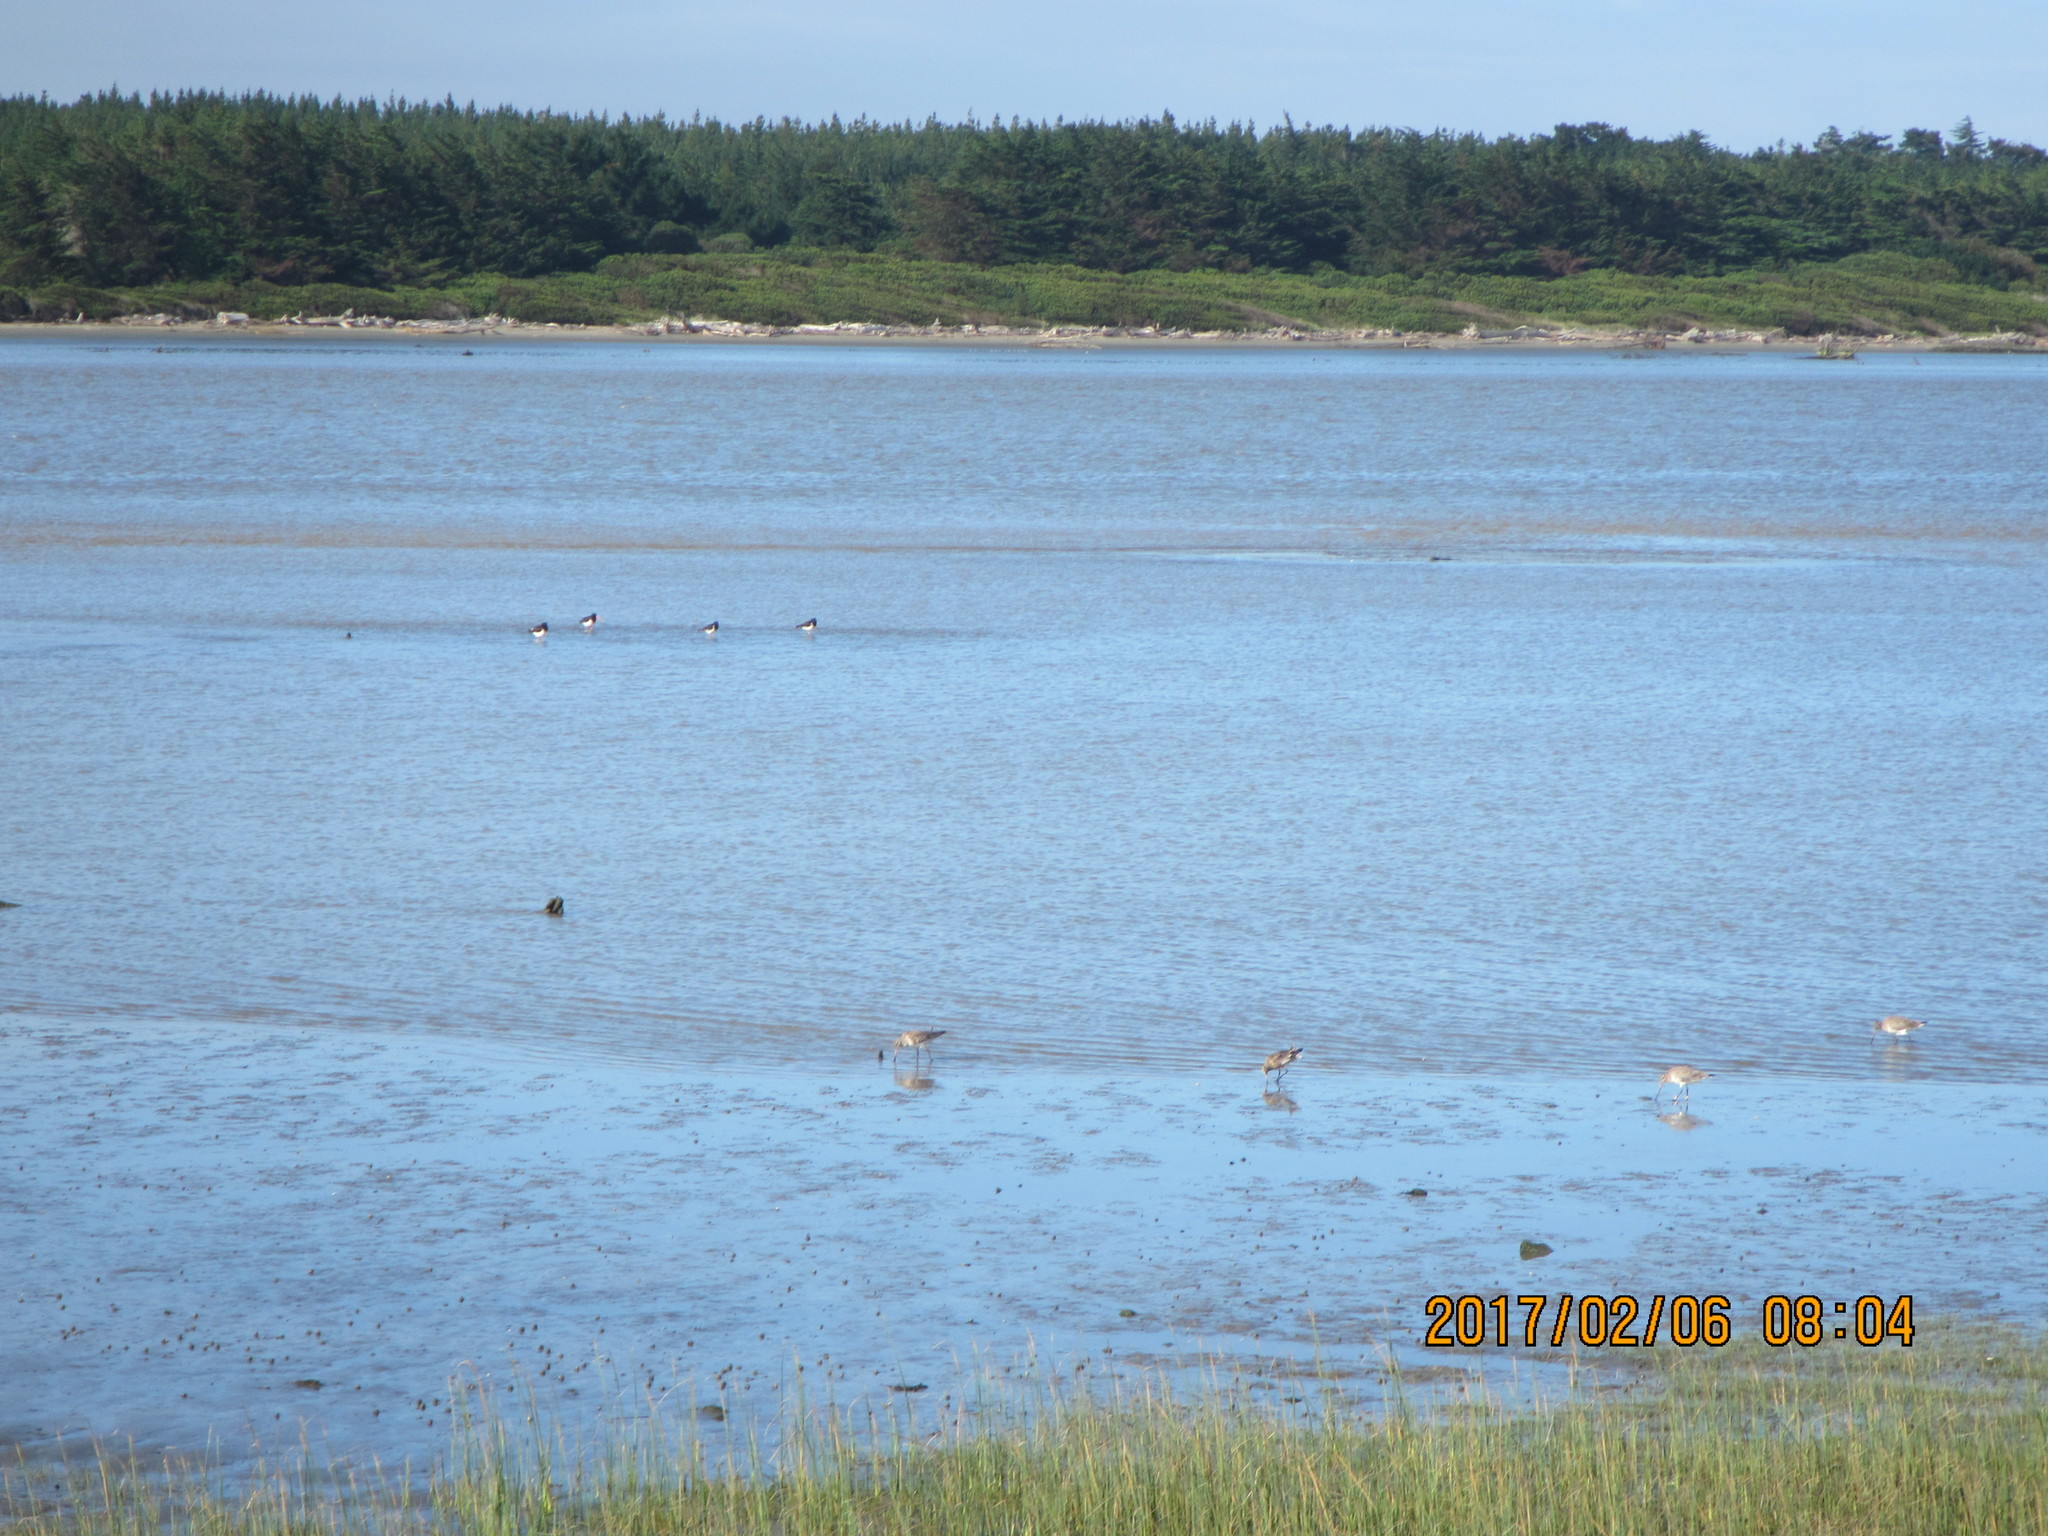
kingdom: Animalia
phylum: Chordata
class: Aves
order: Charadriiformes
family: Scolopacidae
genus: Limosa
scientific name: Limosa lapponica
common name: Bar-tailed godwit
